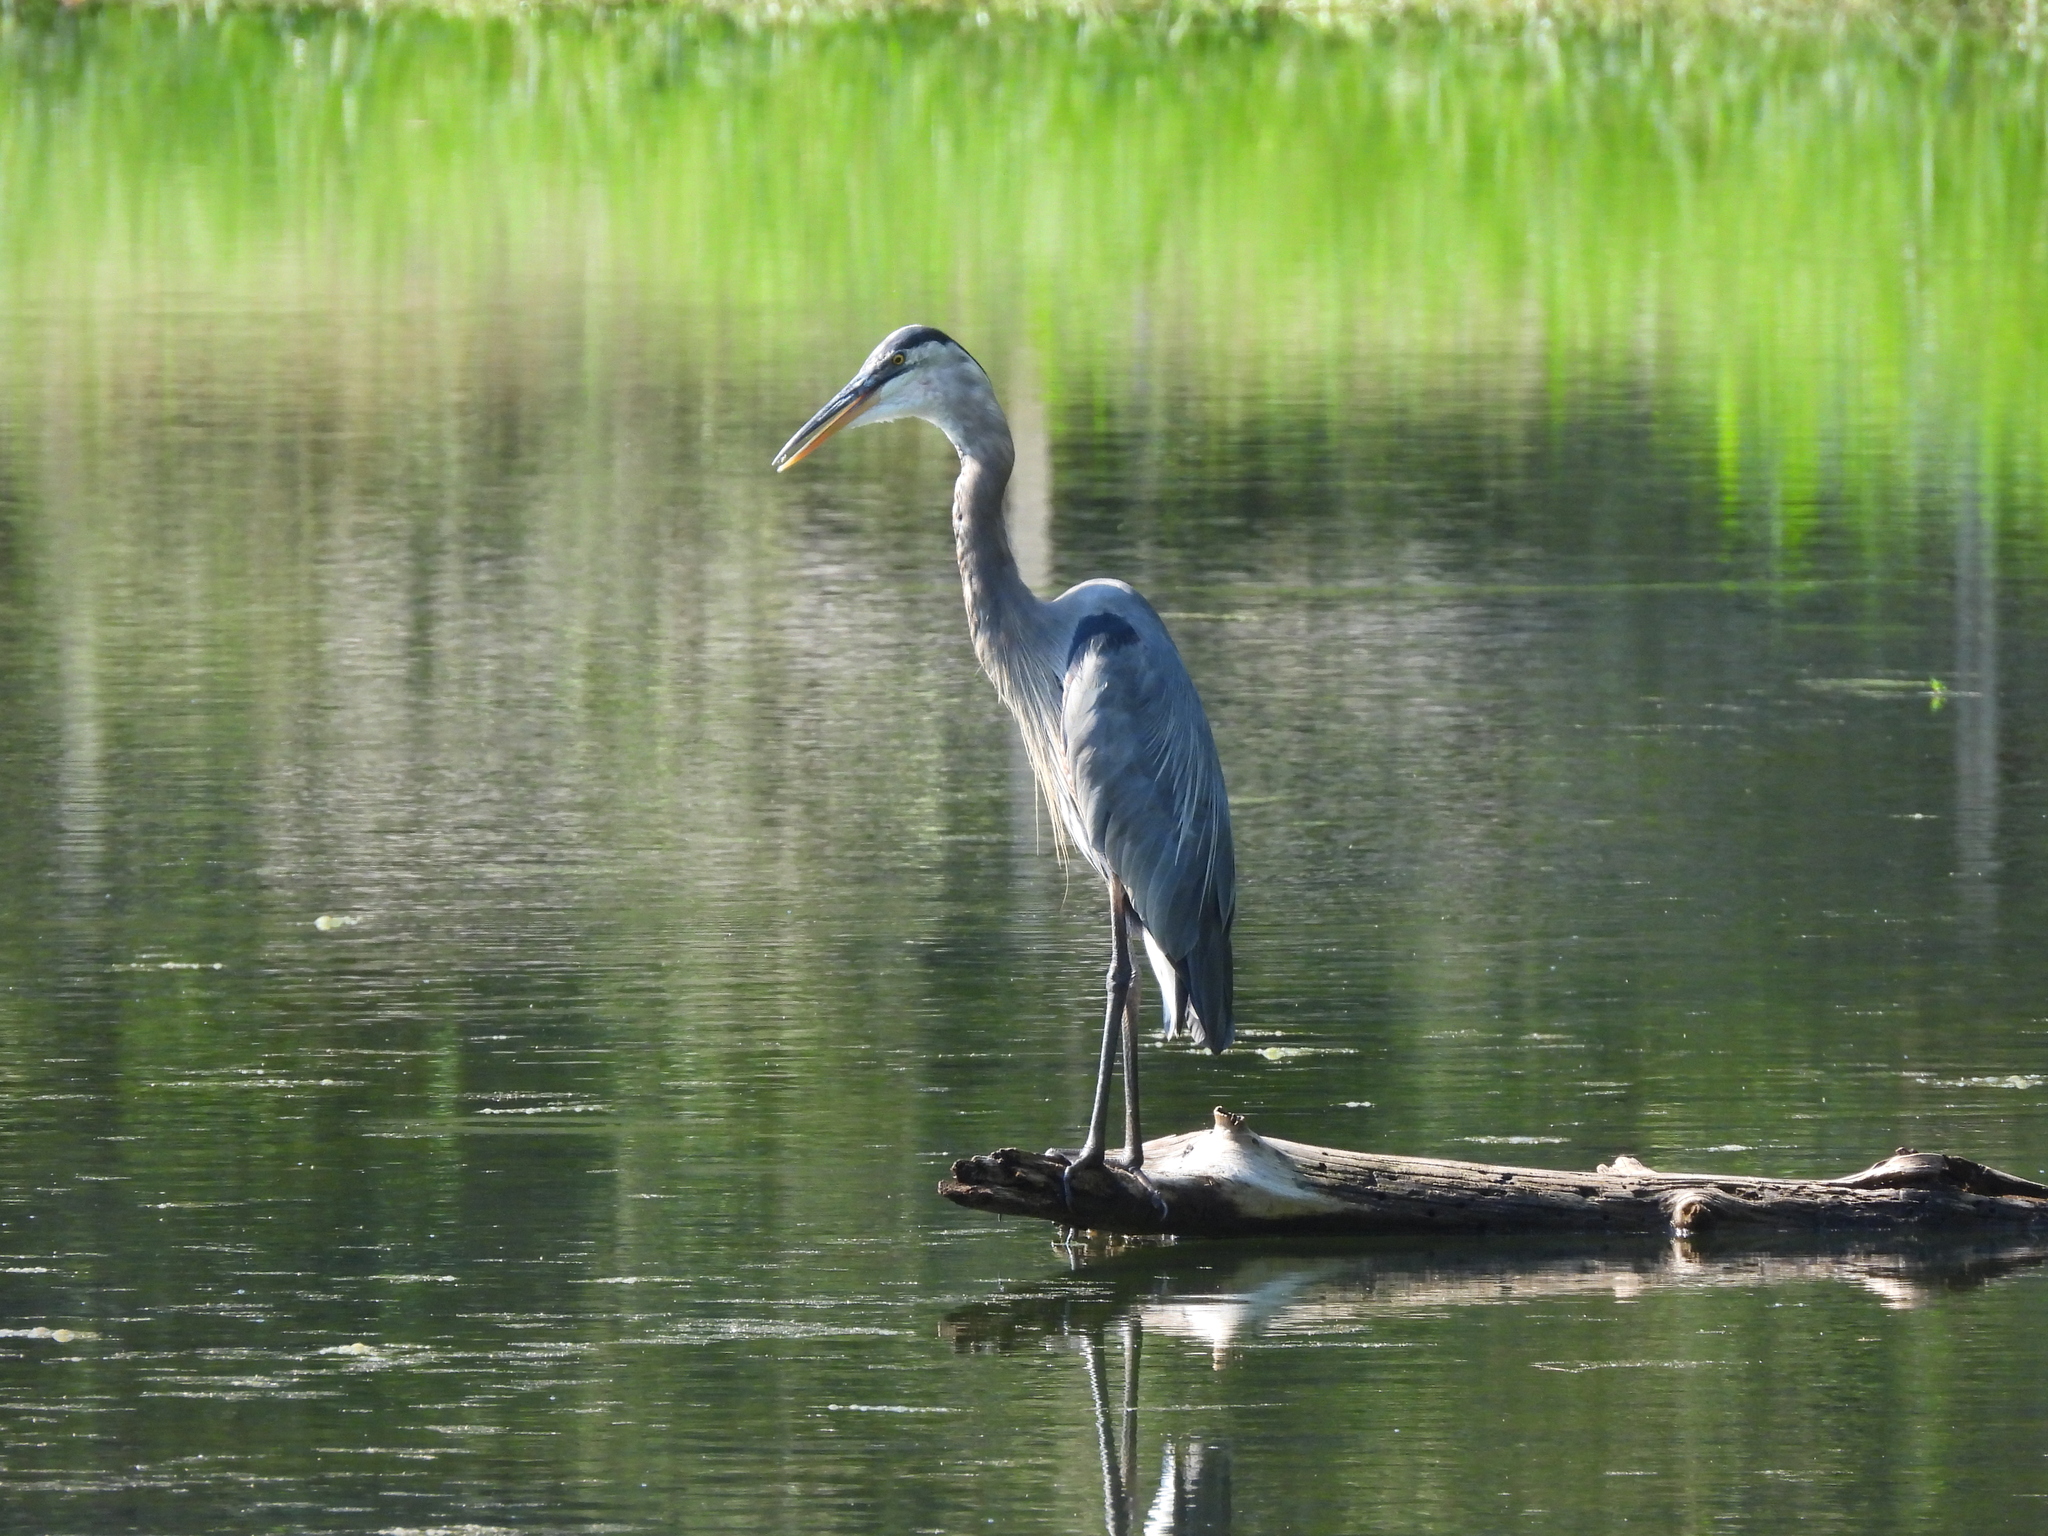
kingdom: Animalia
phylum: Chordata
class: Aves
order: Pelecaniformes
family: Ardeidae
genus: Ardea
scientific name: Ardea herodias
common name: Great blue heron
